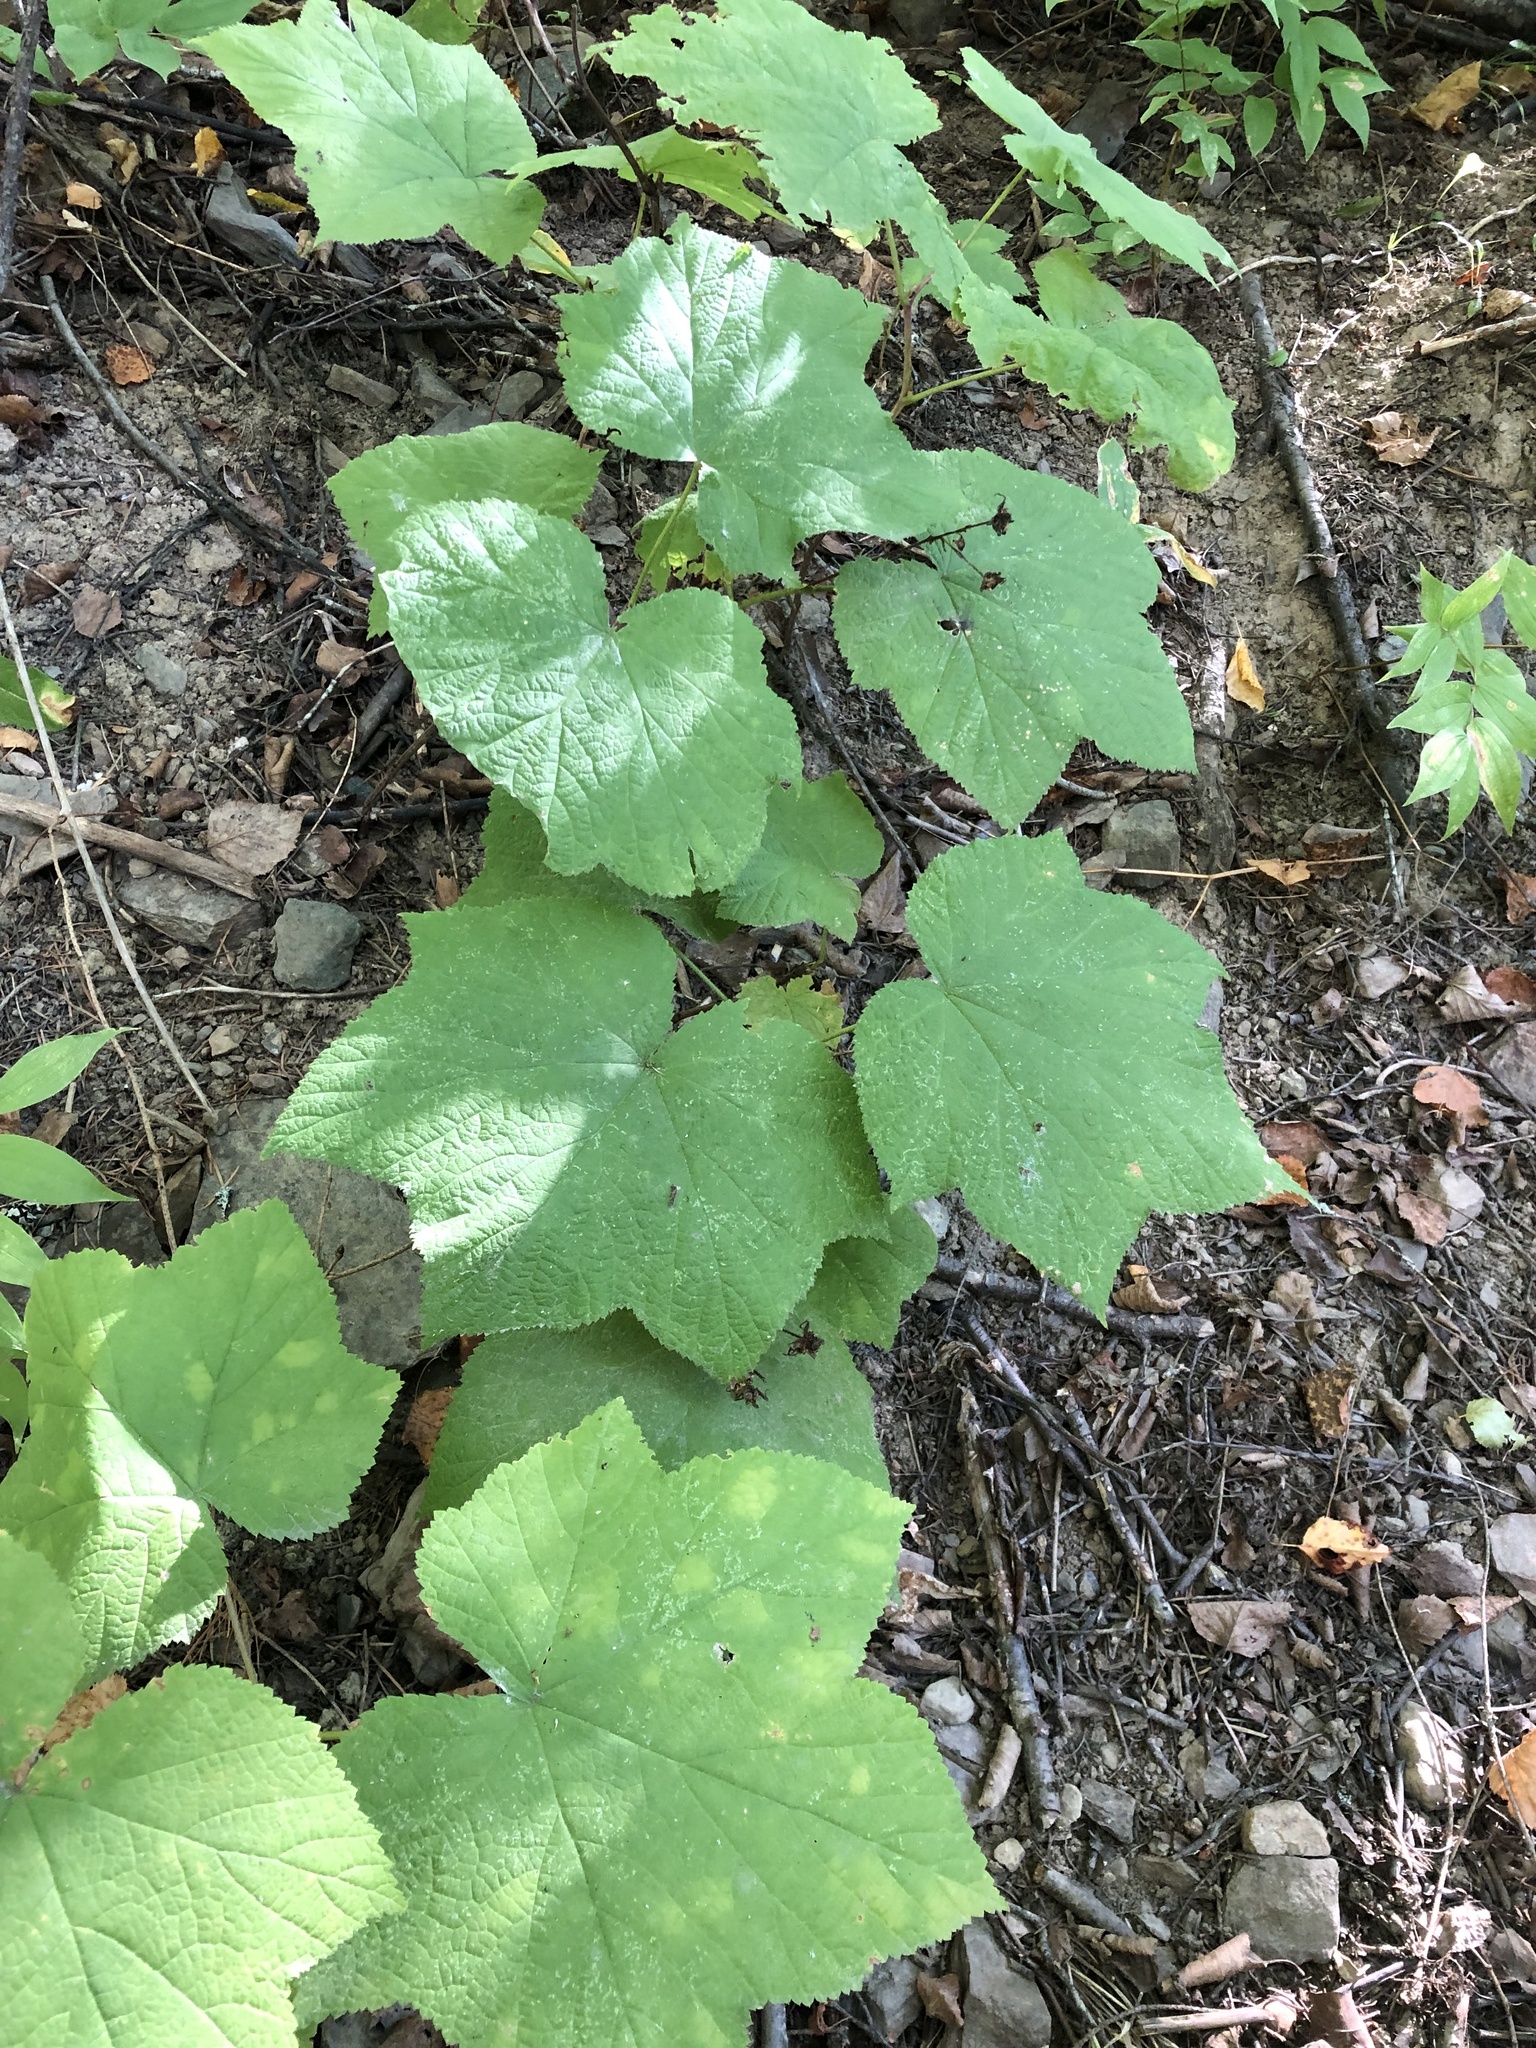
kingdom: Plantae
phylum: Tracheophyta
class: Magnoliopsida
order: Rosales
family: Rosaceae
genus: Rubus
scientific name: Rubus parviflorus
